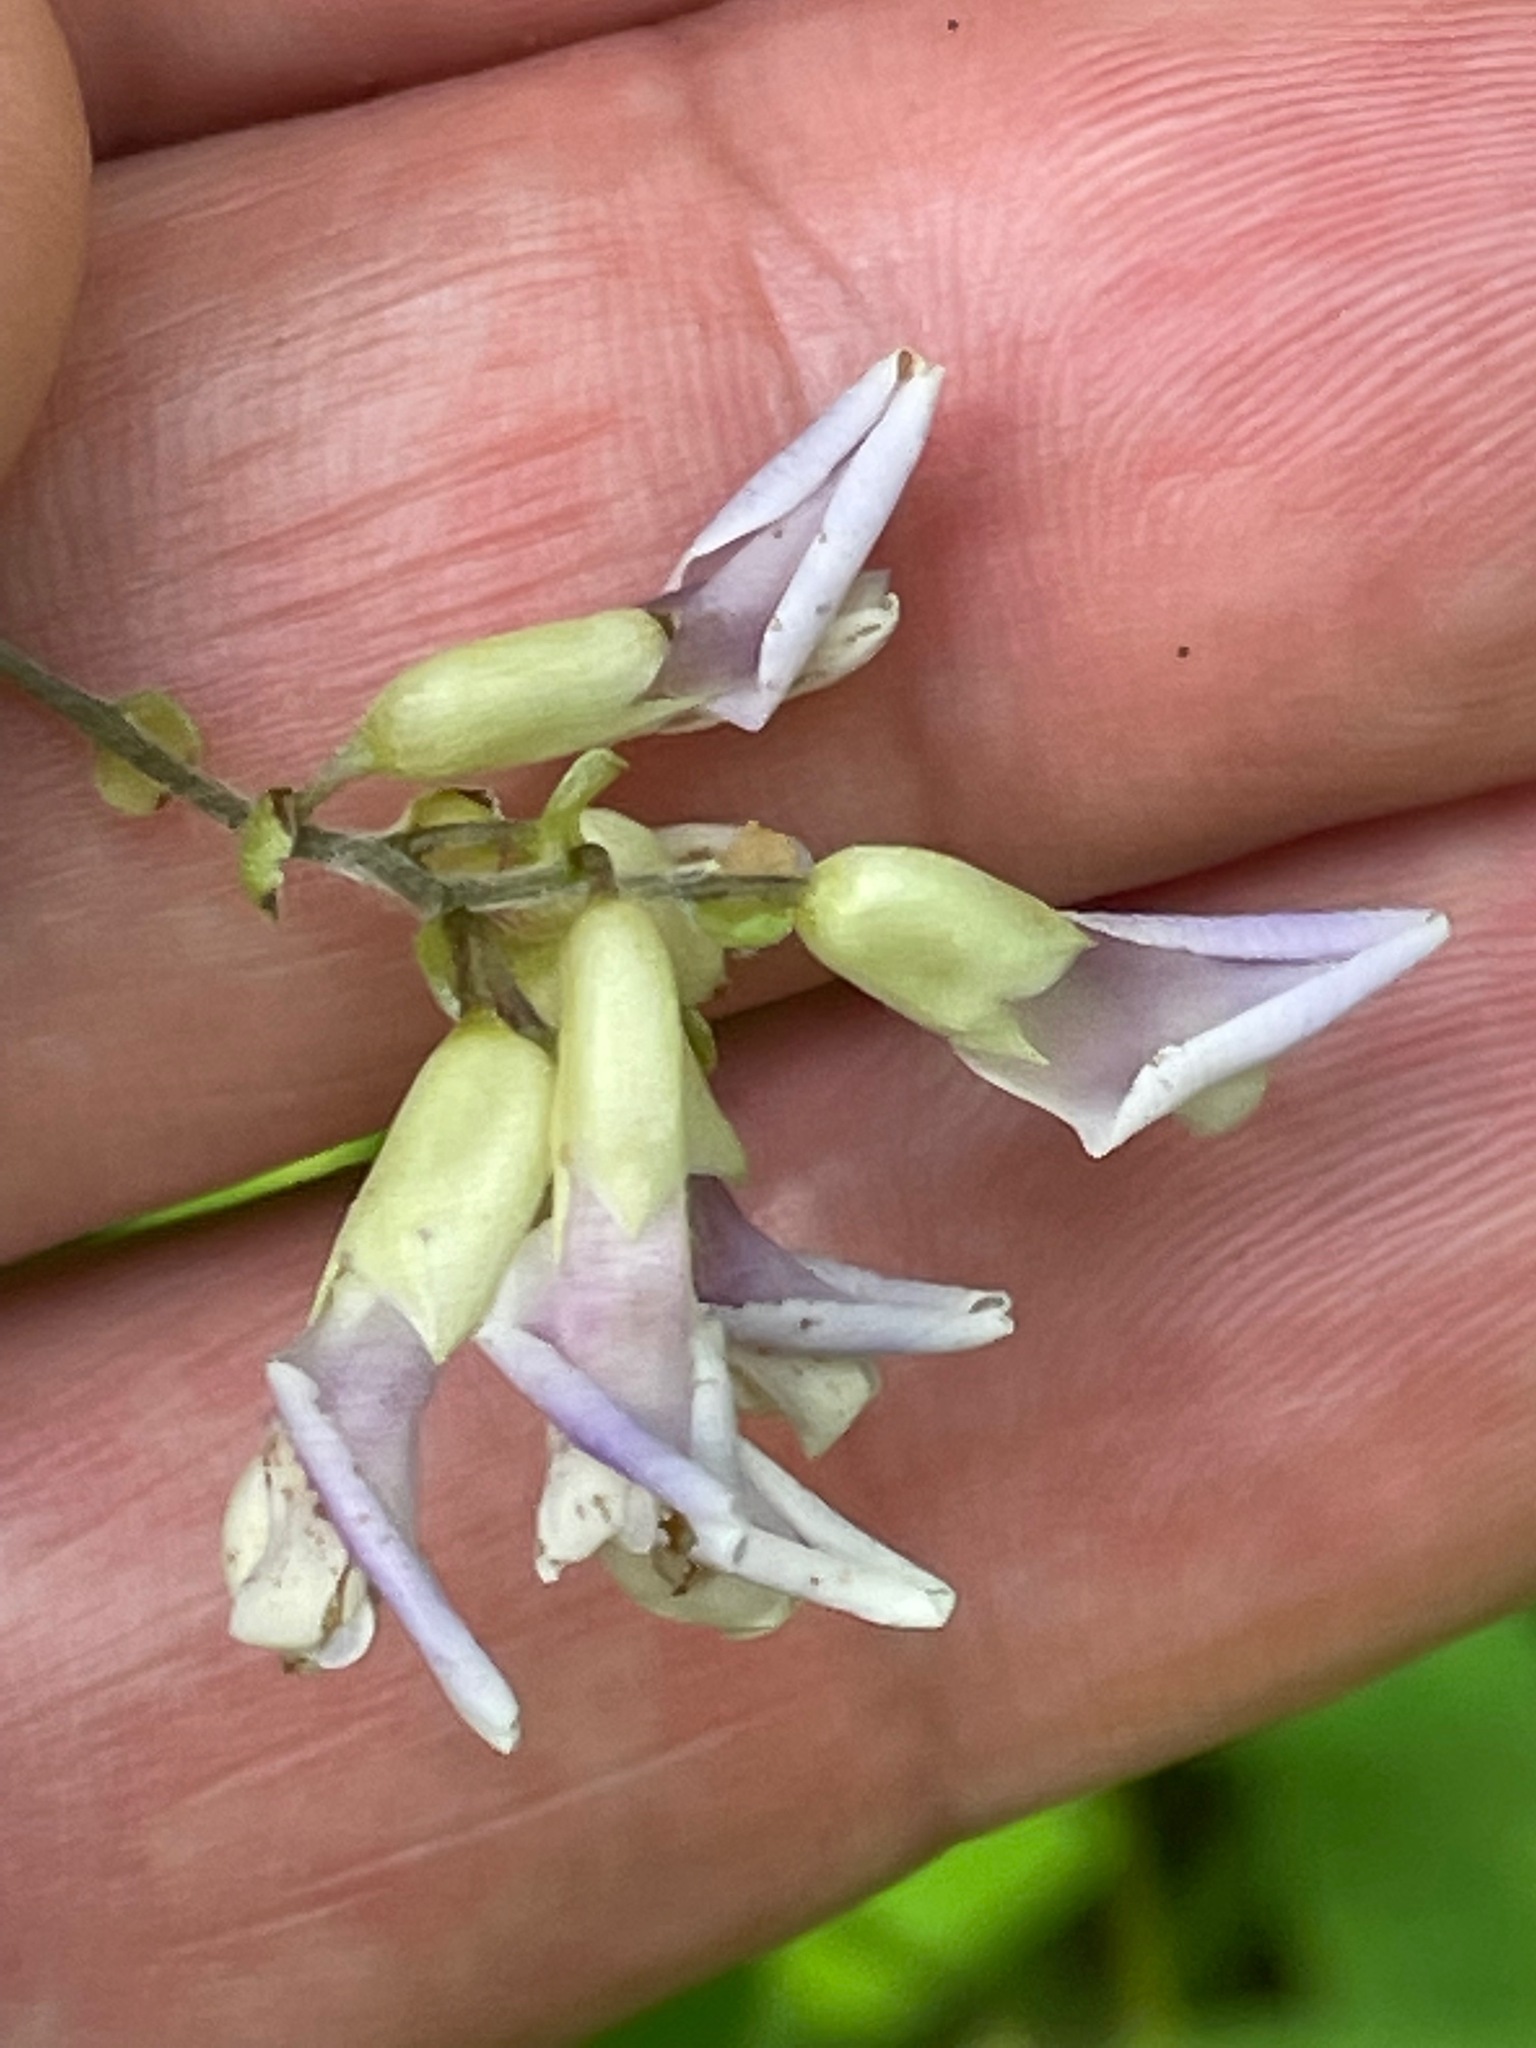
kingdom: Plantae
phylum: Tracheophyta
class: Magnoliopsida
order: Fabales
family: Fabaceae
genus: Amphicarpaea
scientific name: Amphicarpaea bracteata
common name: American hog peanut
